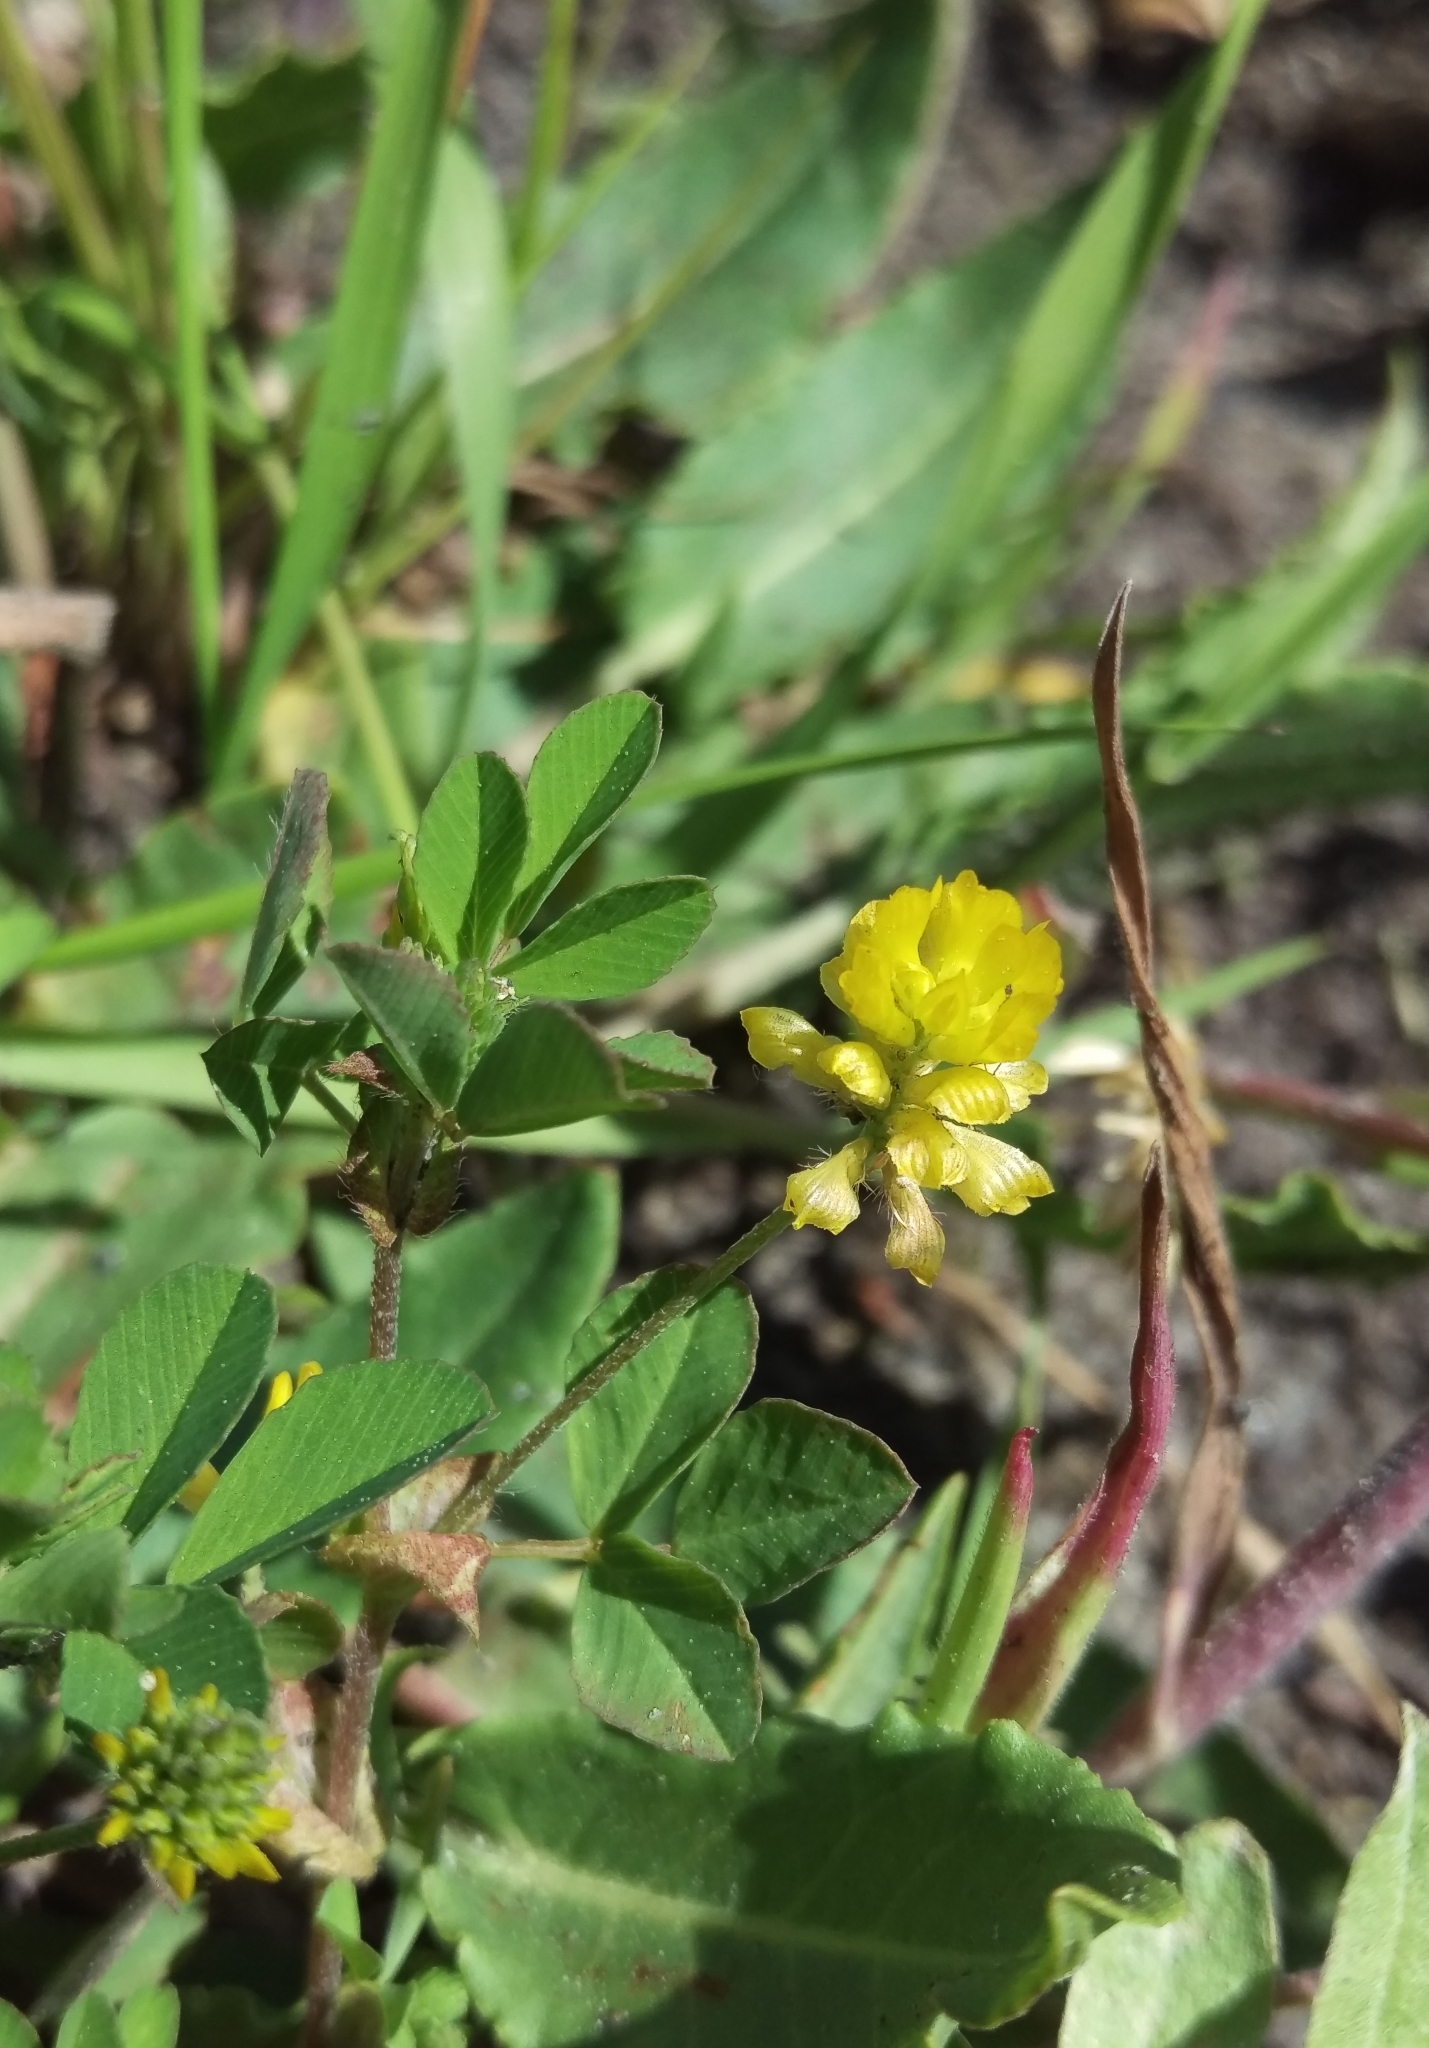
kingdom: Plantae
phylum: Tracheophyta
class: Magnoliopsida
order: Fabales
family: Fabaceae
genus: Trifolium
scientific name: Trifolium campestre
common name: Field clover
